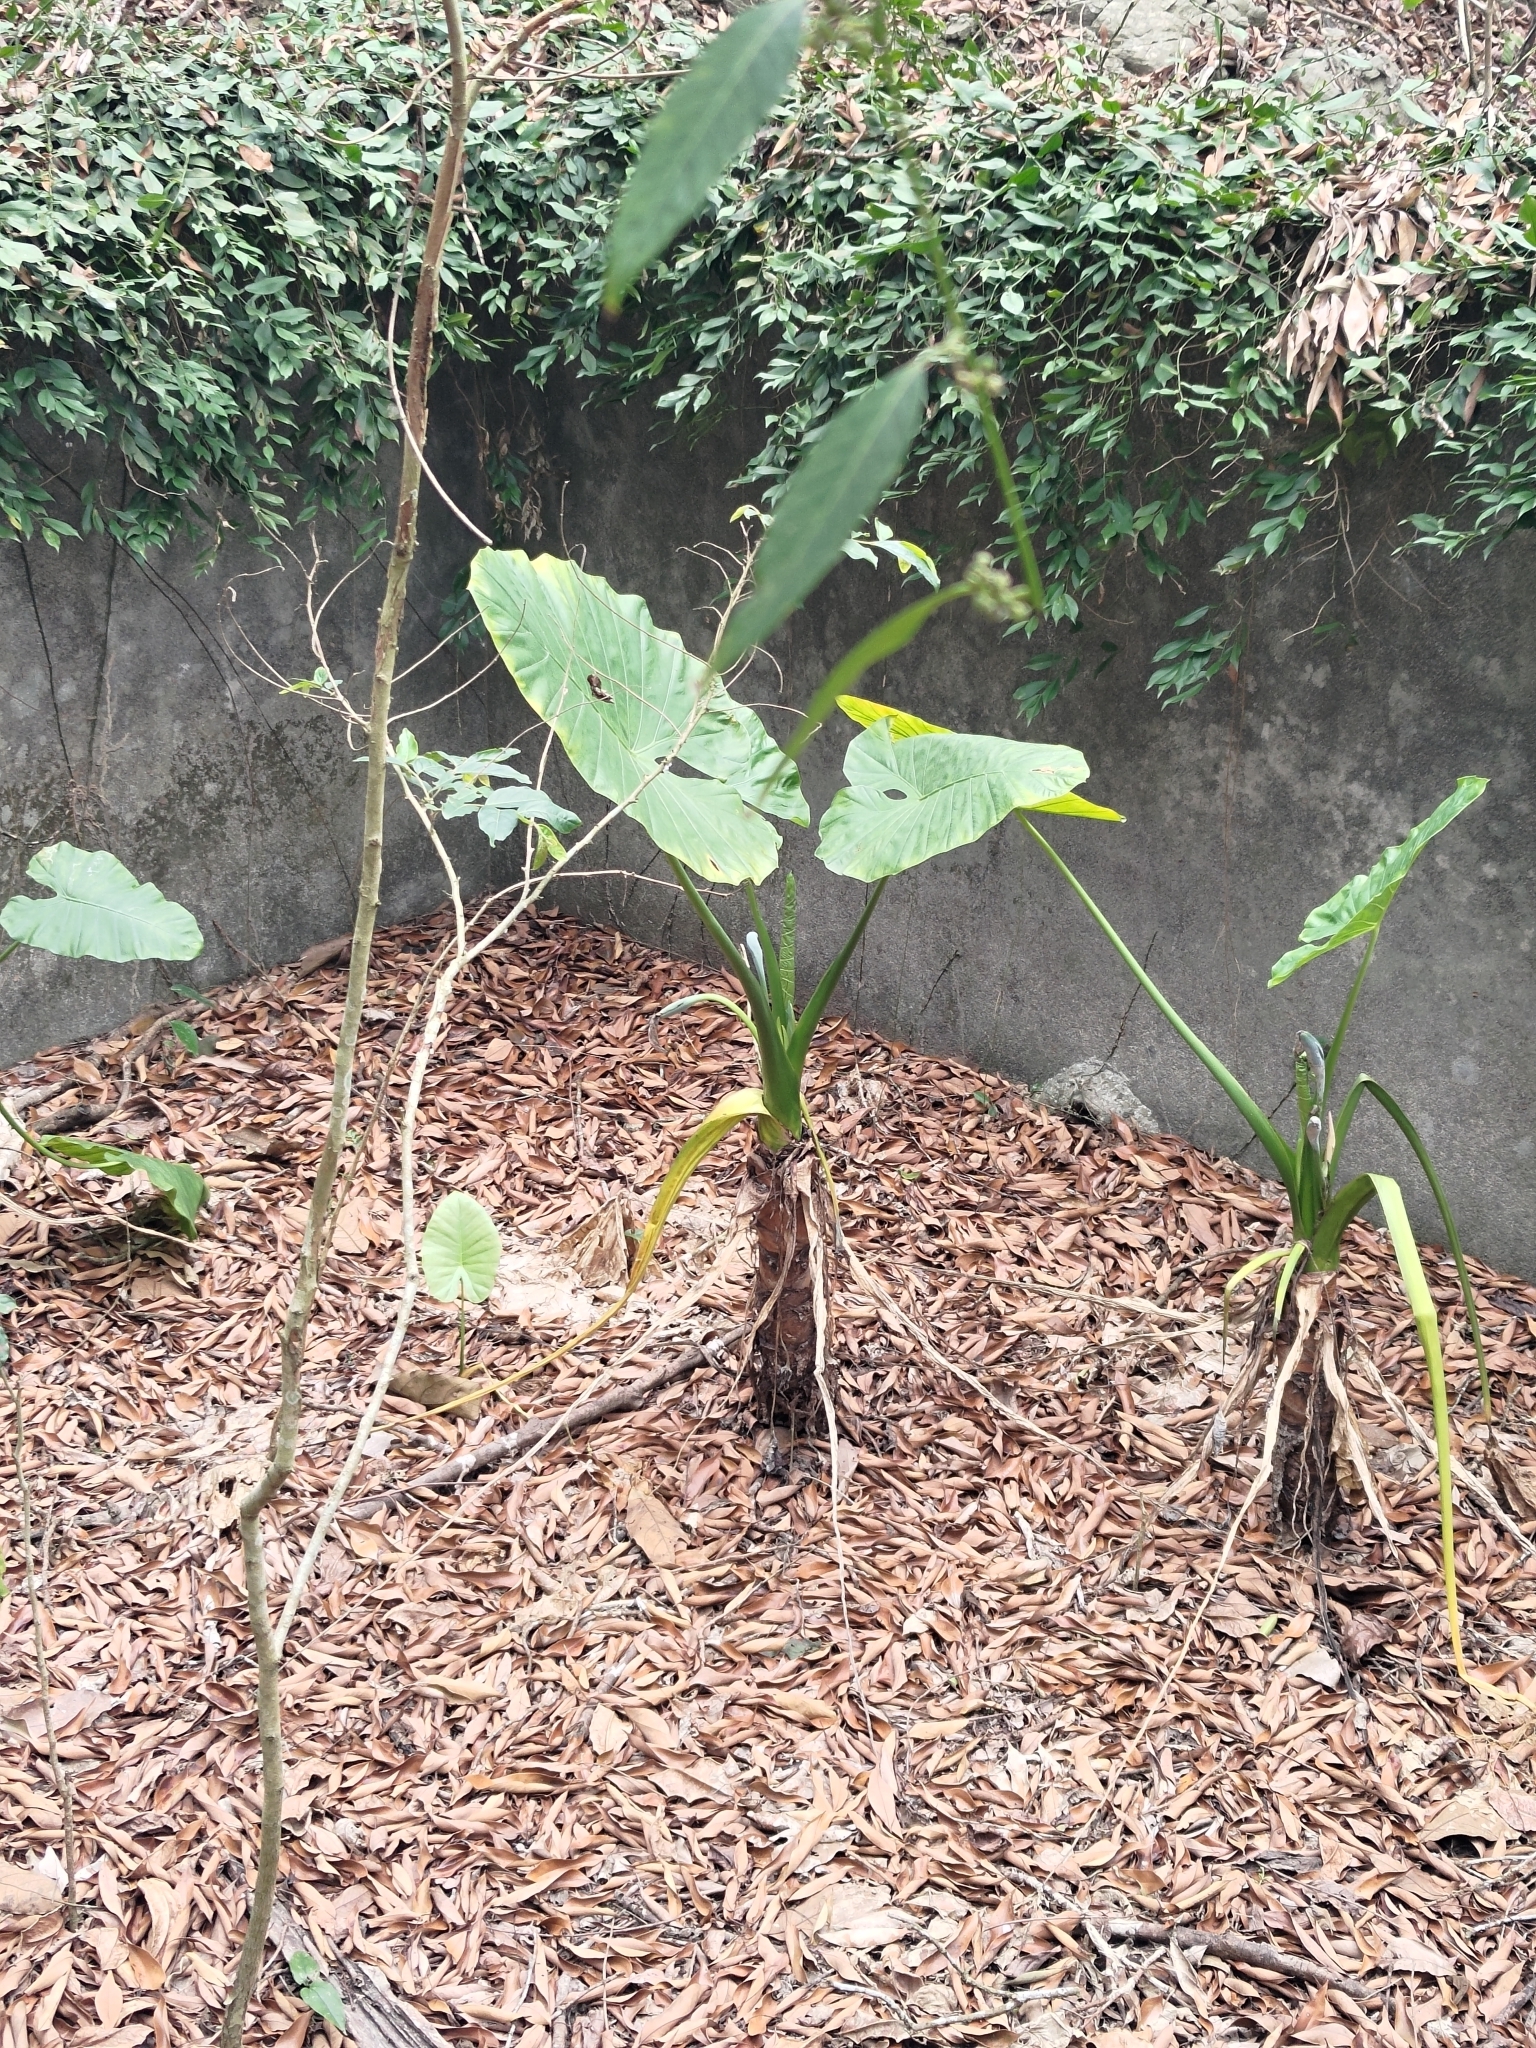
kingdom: Plantae
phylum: Tracheophyta
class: Liliopsida
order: Alismatales
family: Araceae
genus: Alocasia
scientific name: Alocasia odora
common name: Asian taro
